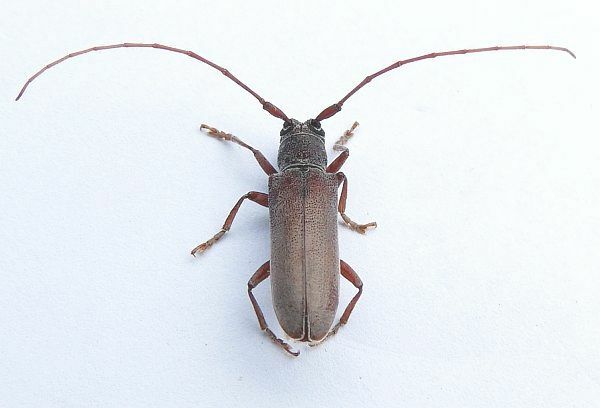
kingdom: Animalia
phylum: Arthropoda
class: Insecta
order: Coleoptera
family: Cerambycidae
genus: Hebestola
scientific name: Hebestola nebulosa
